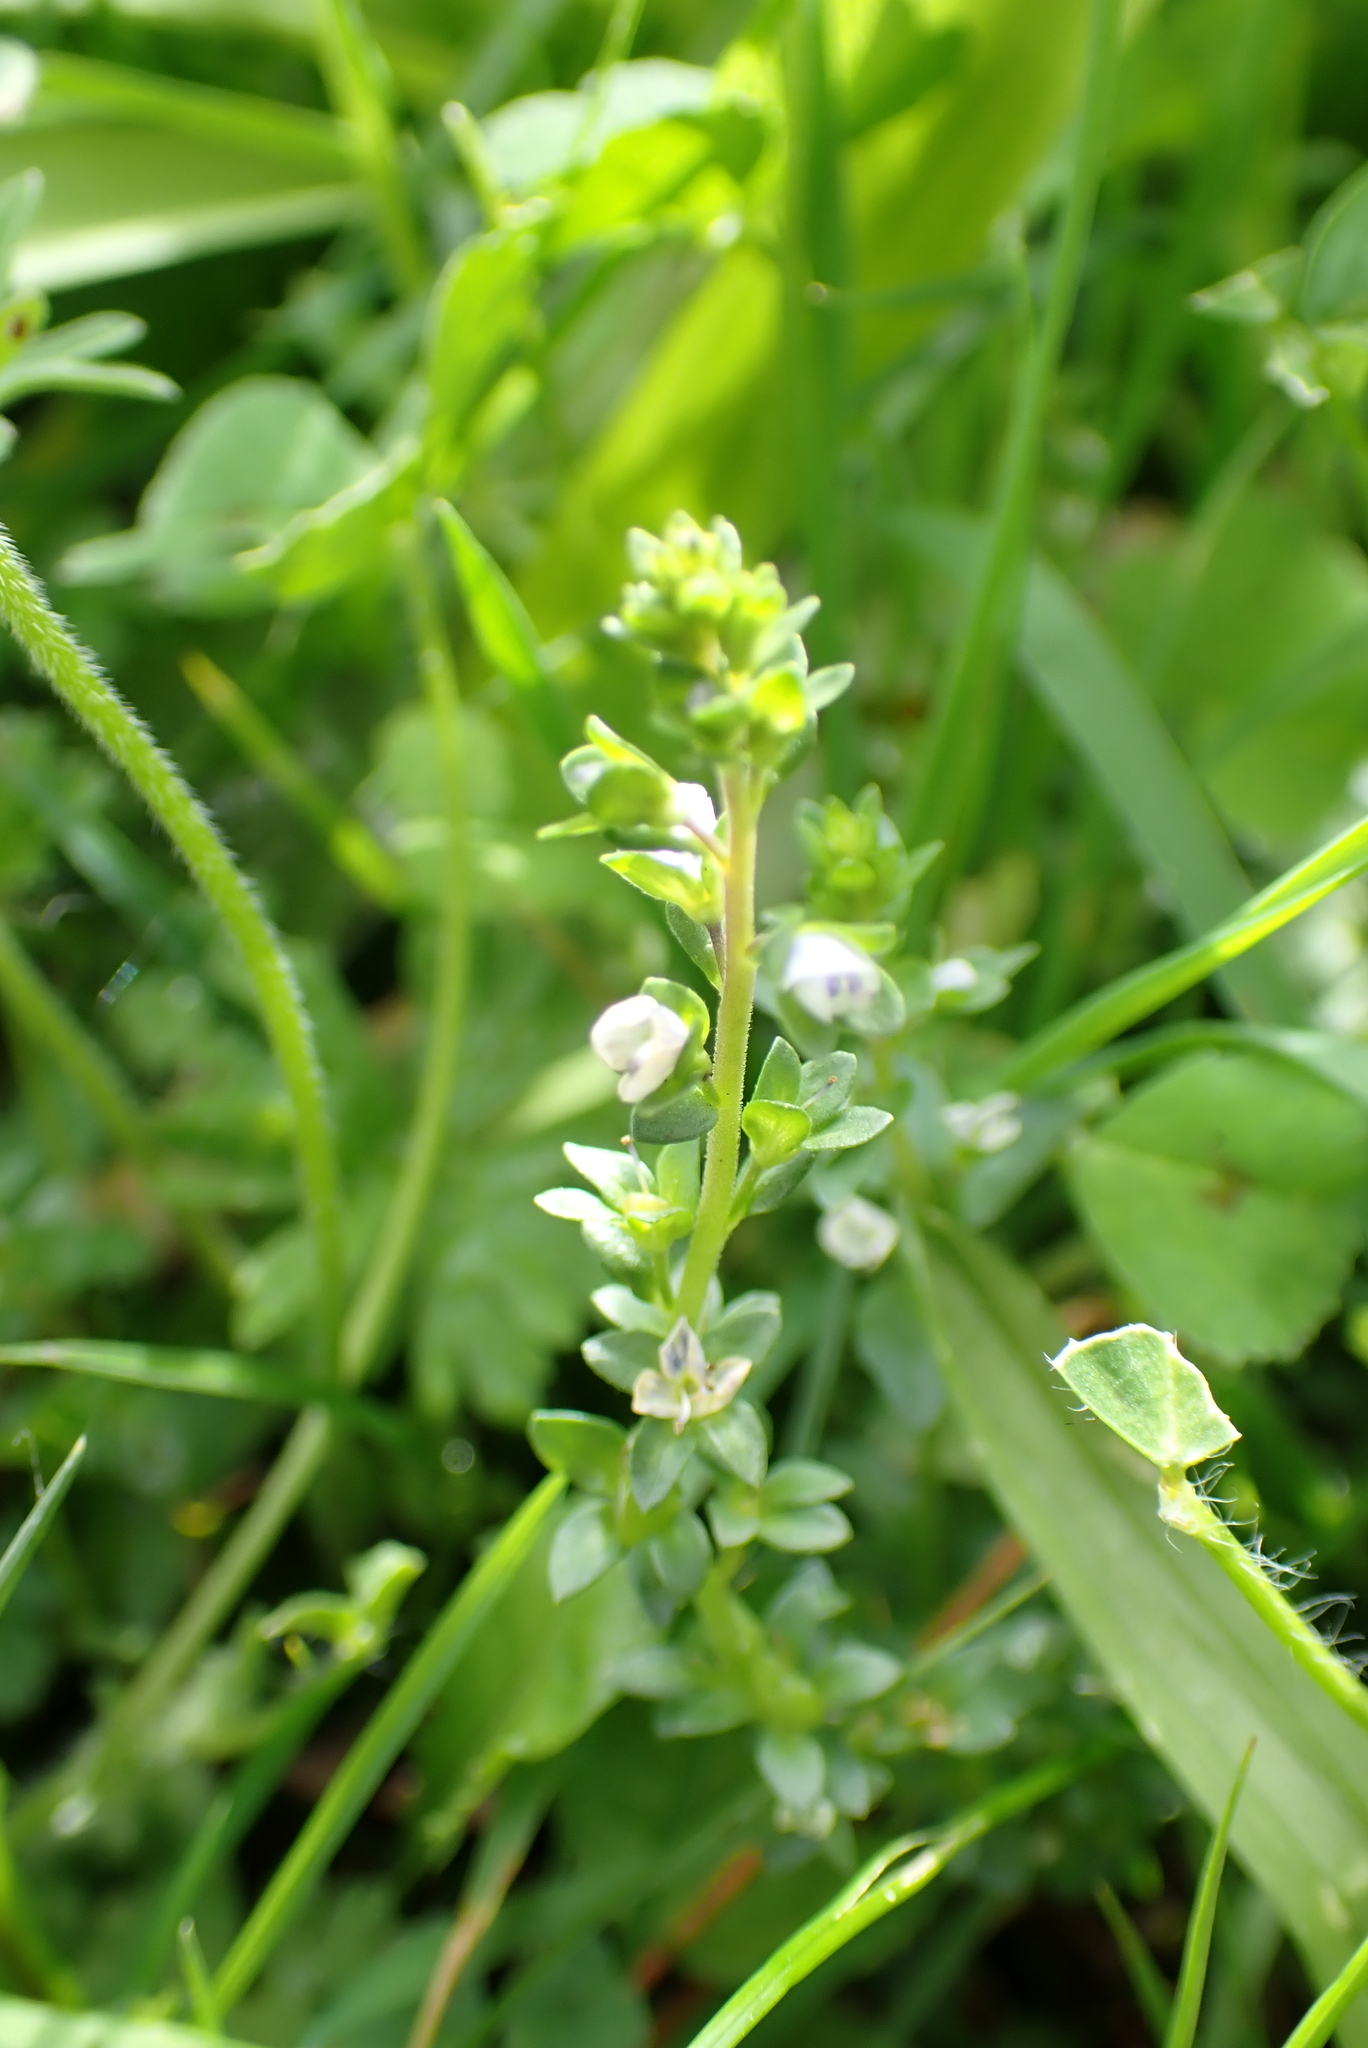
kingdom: Plantae
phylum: Tracheophyta
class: Magnoliopsida
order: Lamiales
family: Plantaginaceae
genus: Veronica
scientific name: Veronica serpyllifolia
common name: Thyme-leaved speedwell
